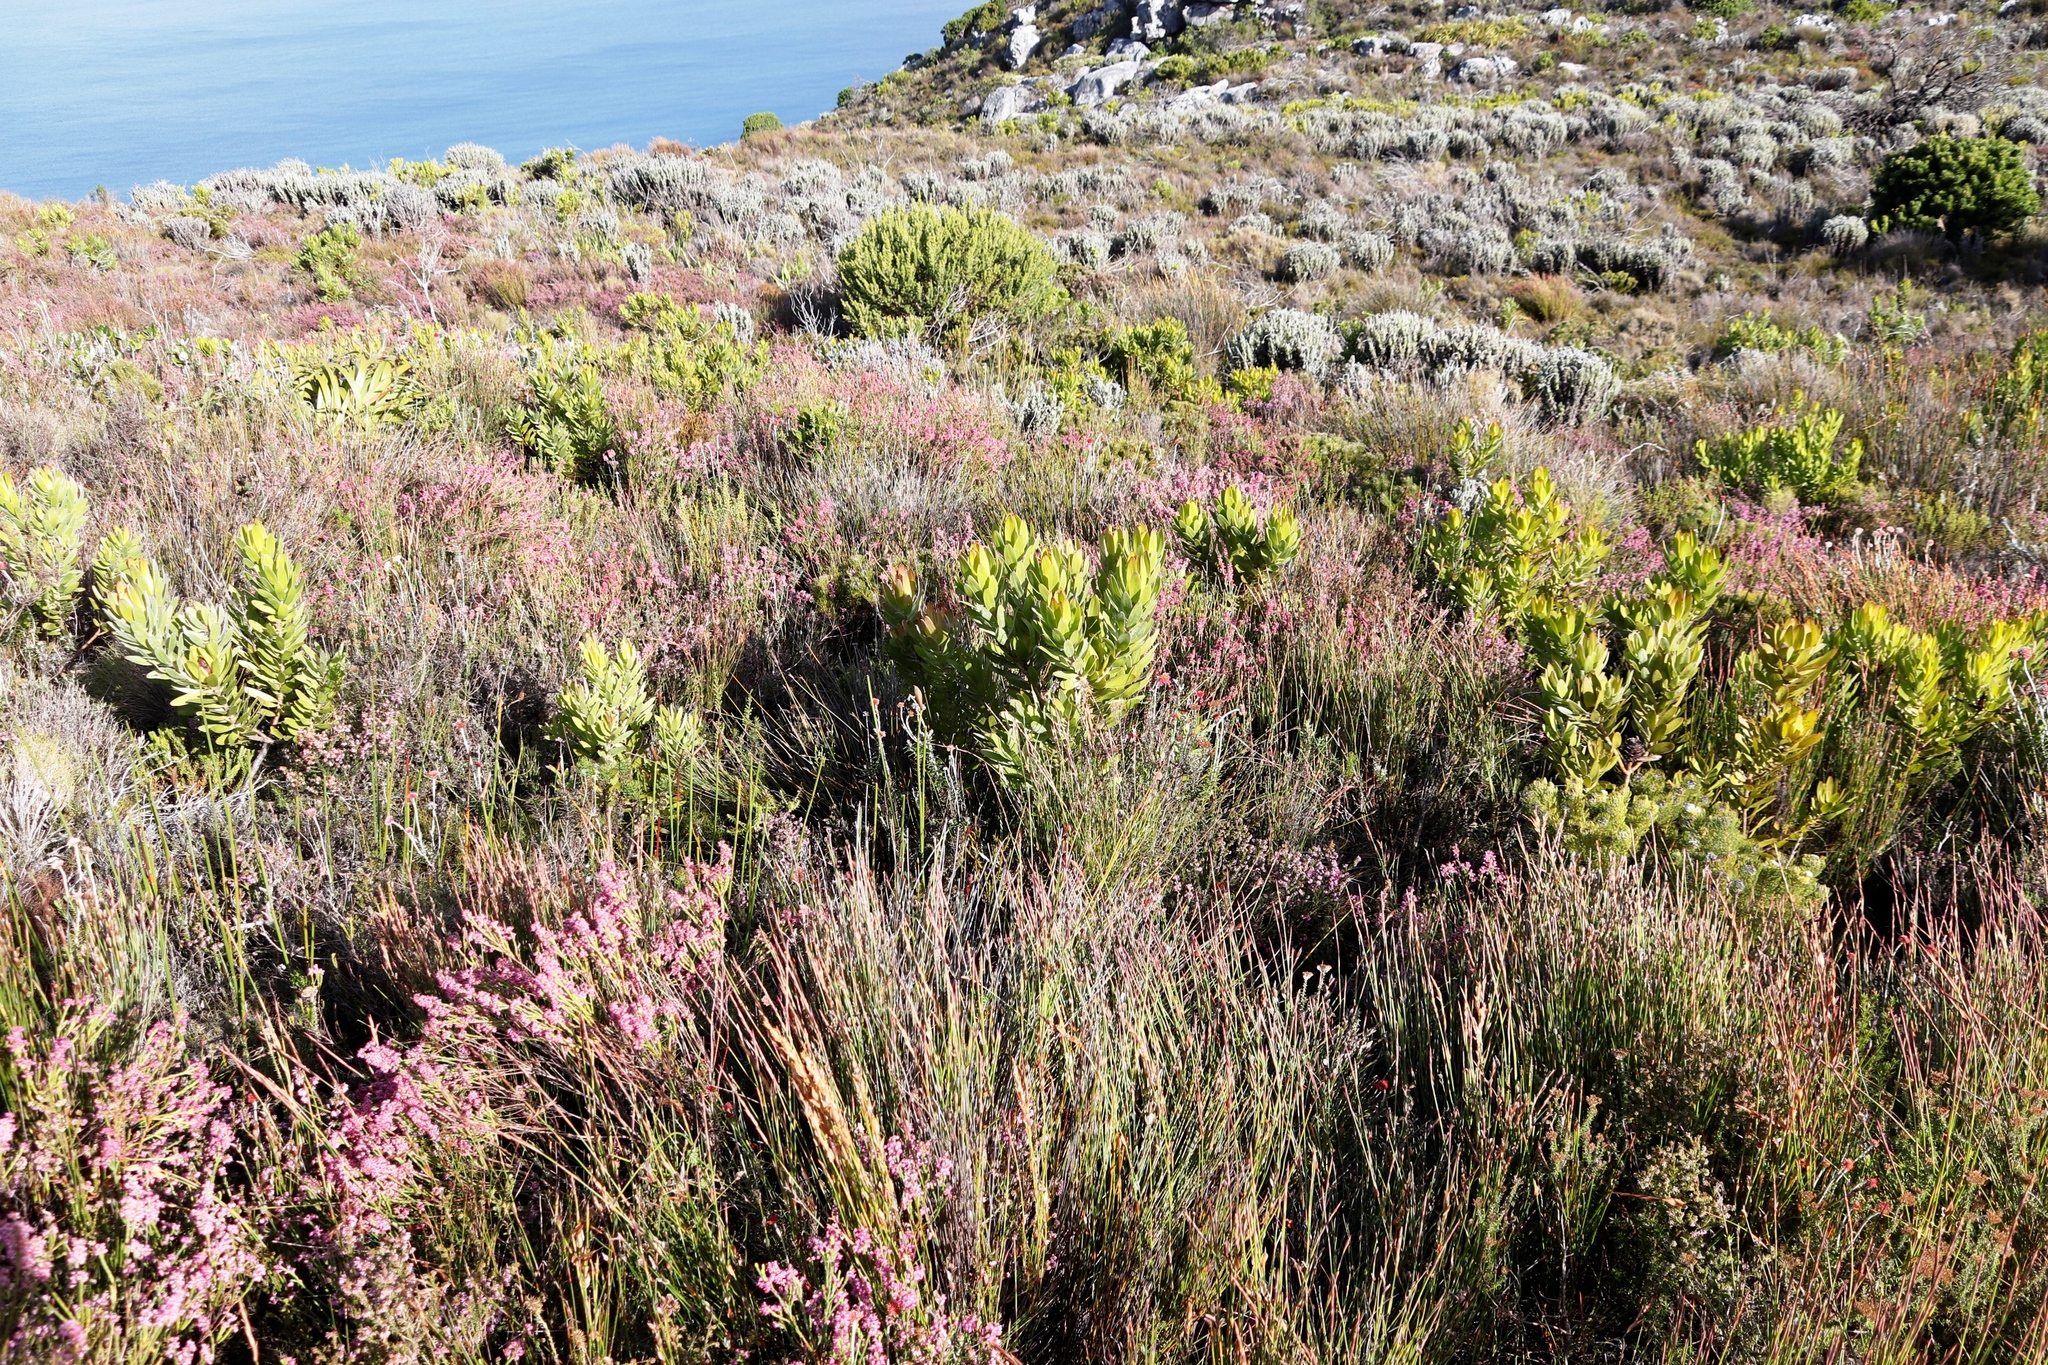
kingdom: Plantae
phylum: Tracheophyta
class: Magnoliopsida
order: Ericales
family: Ericaceae
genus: Erica
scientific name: Erica corifolia
